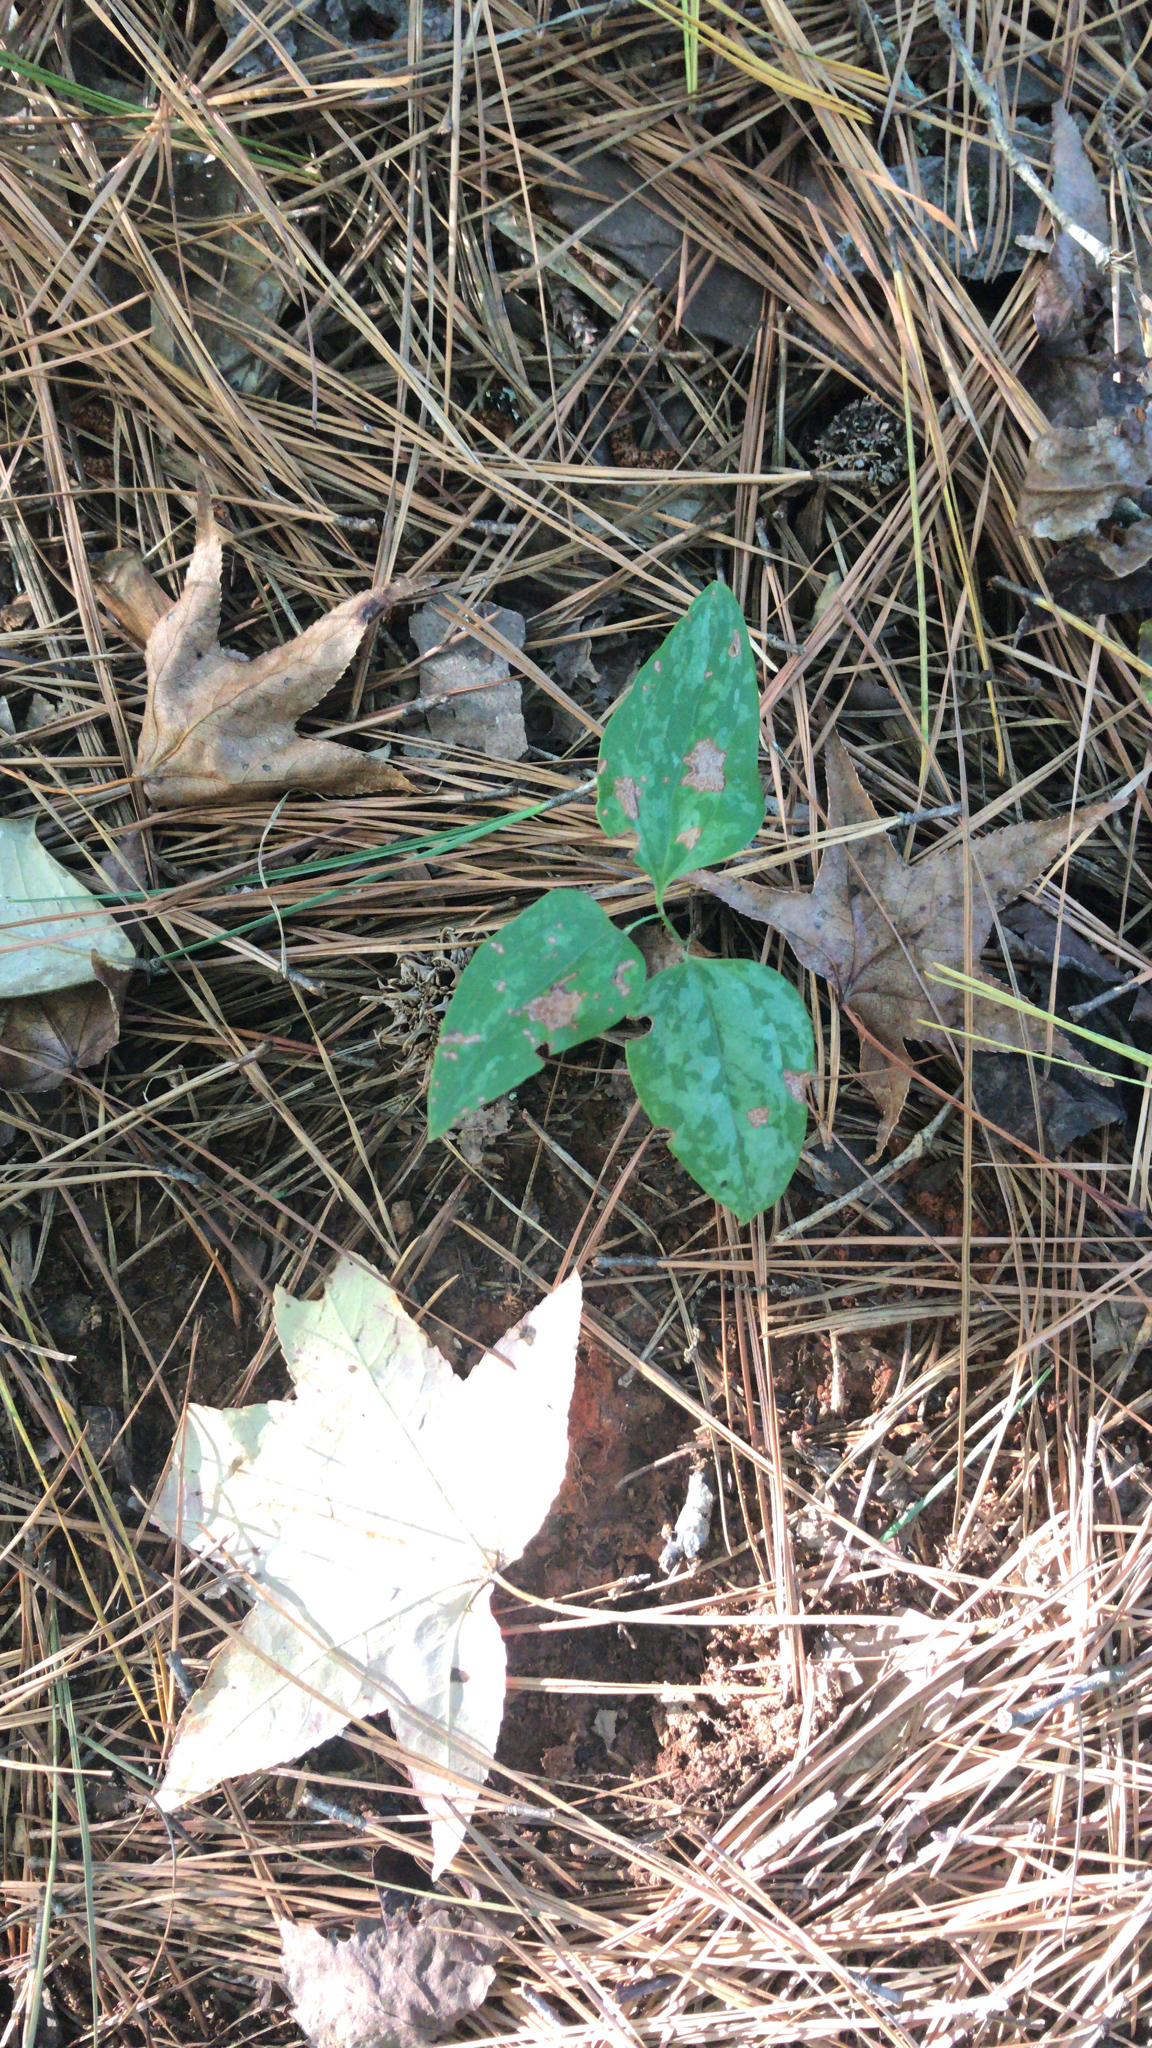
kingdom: Plantae
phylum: Tracheophyta
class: Liliopsida
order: Liliales
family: Smilacaceae
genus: Smilax
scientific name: Smilax glauca
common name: Cat greenbrier
